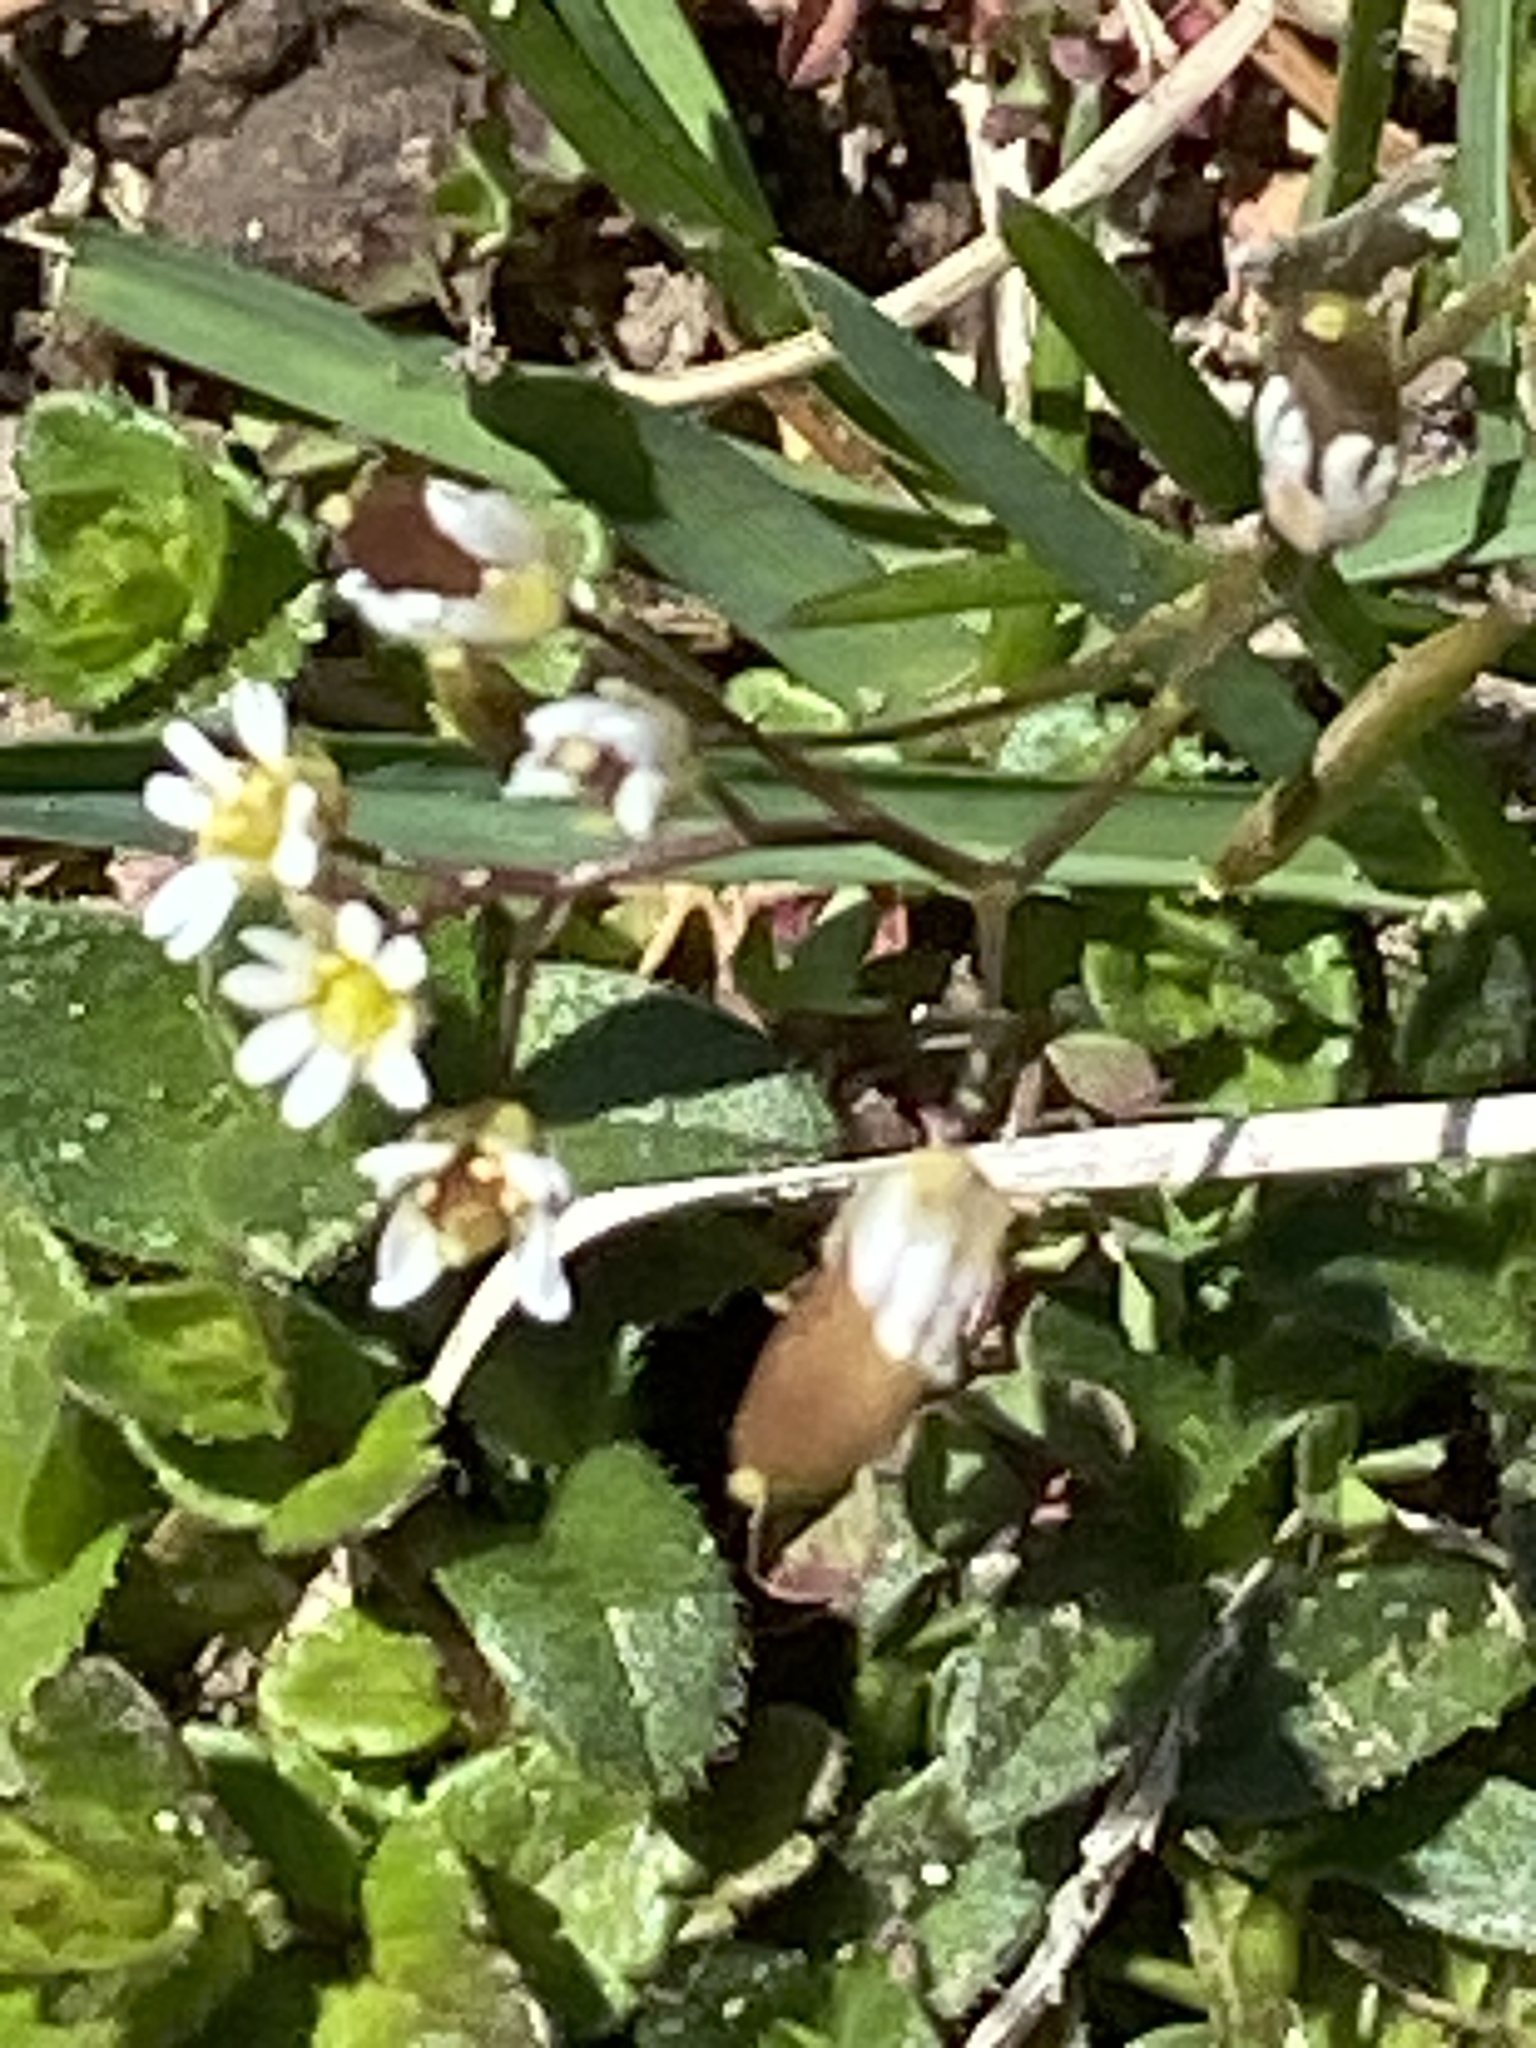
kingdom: Plantae
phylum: Tracheophyta
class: Magnoliopsida
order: Brassicales
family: Brassicaceae
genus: Draba
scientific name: Draba verna
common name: Spring draba
